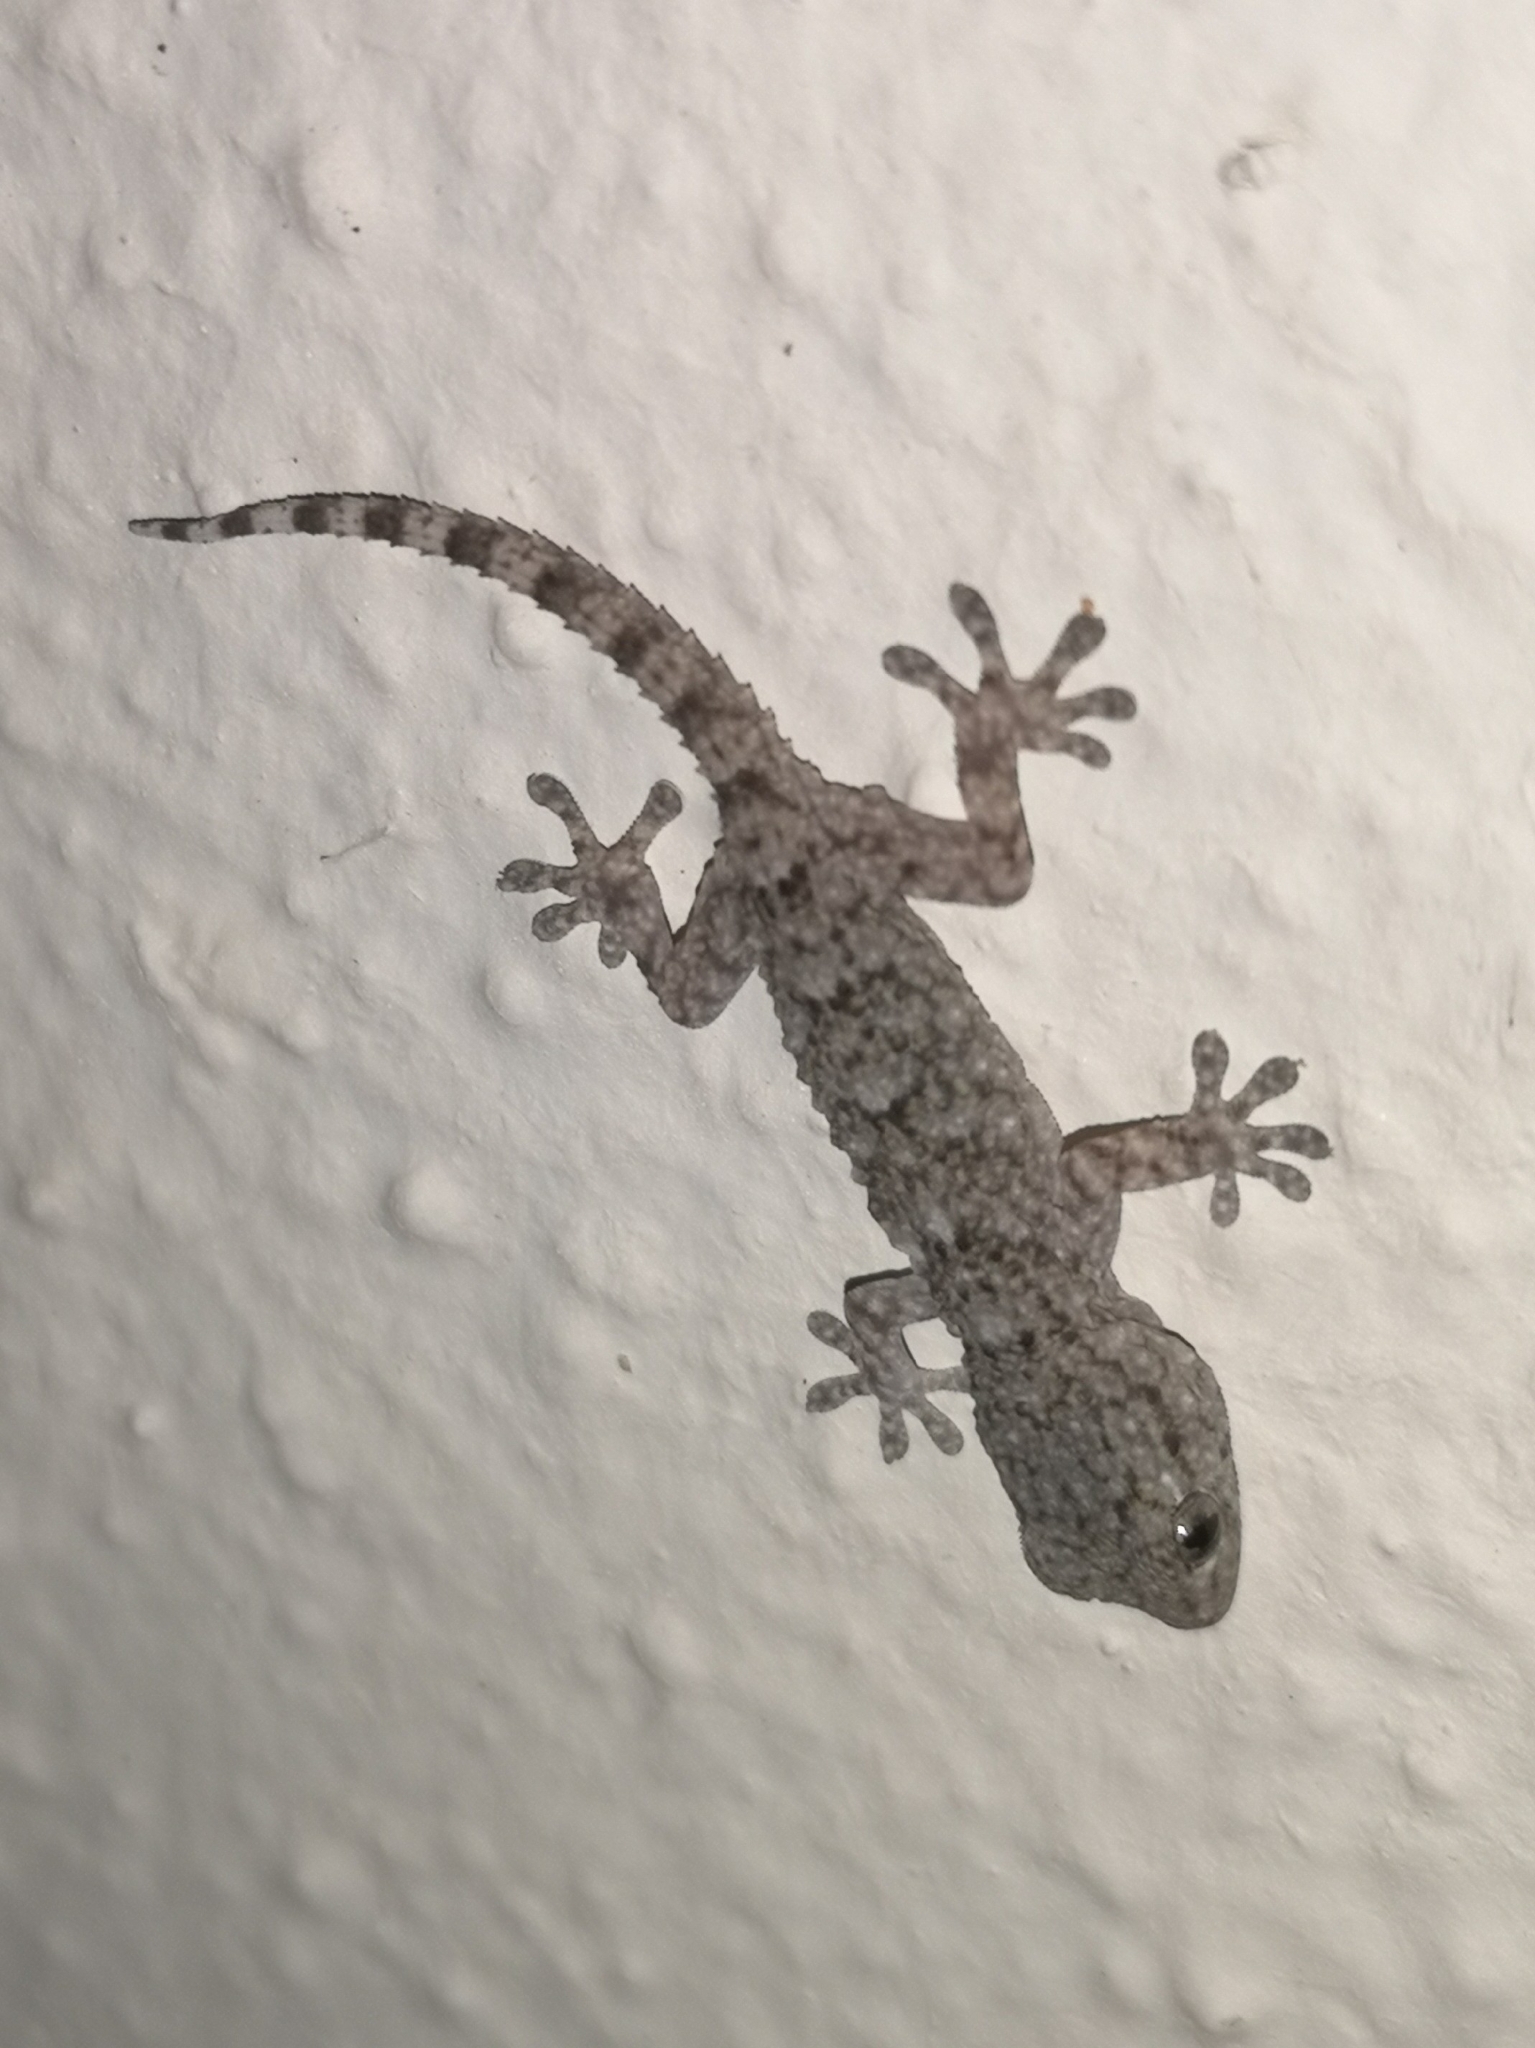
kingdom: Animalia
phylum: Chordata
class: Squamata
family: Phyllodactylidae
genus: Tarentola
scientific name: Tarentola mauritanica
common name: Moorish gecko
